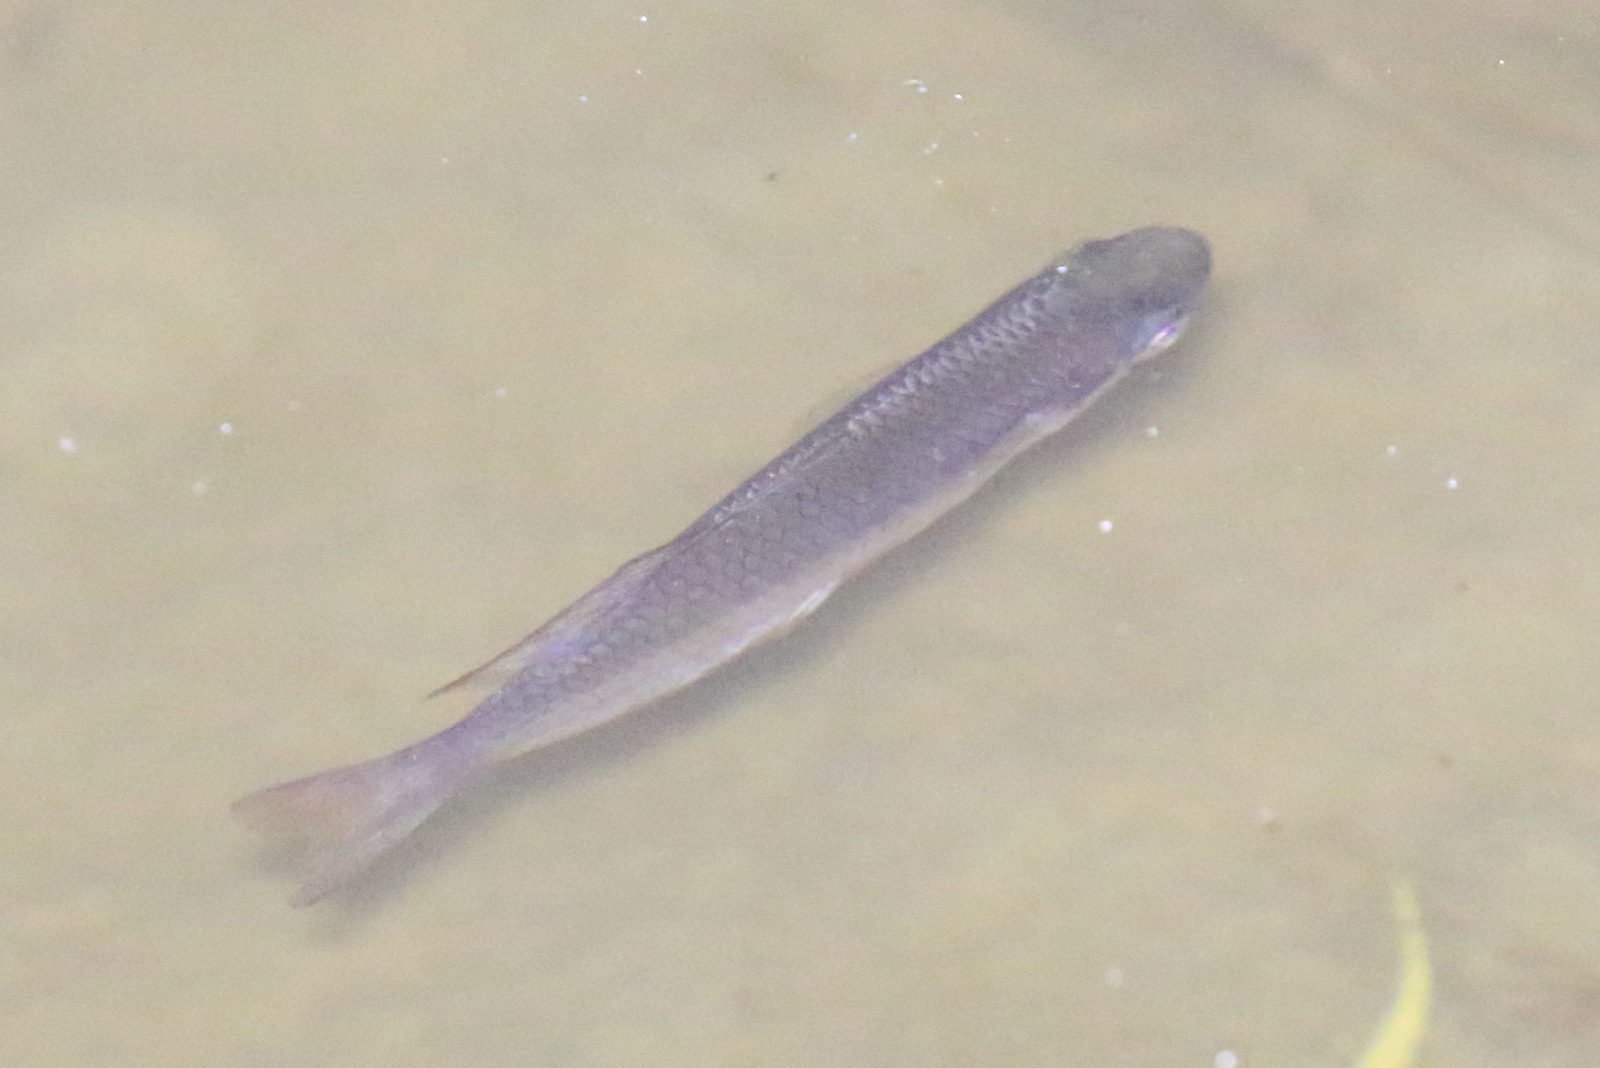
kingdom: Animalia
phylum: Chordata
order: Atheriniformes
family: Melanotaeniidae
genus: Melanotaenia
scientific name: Melanotaenia splendida
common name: Checkered rainbowfish
